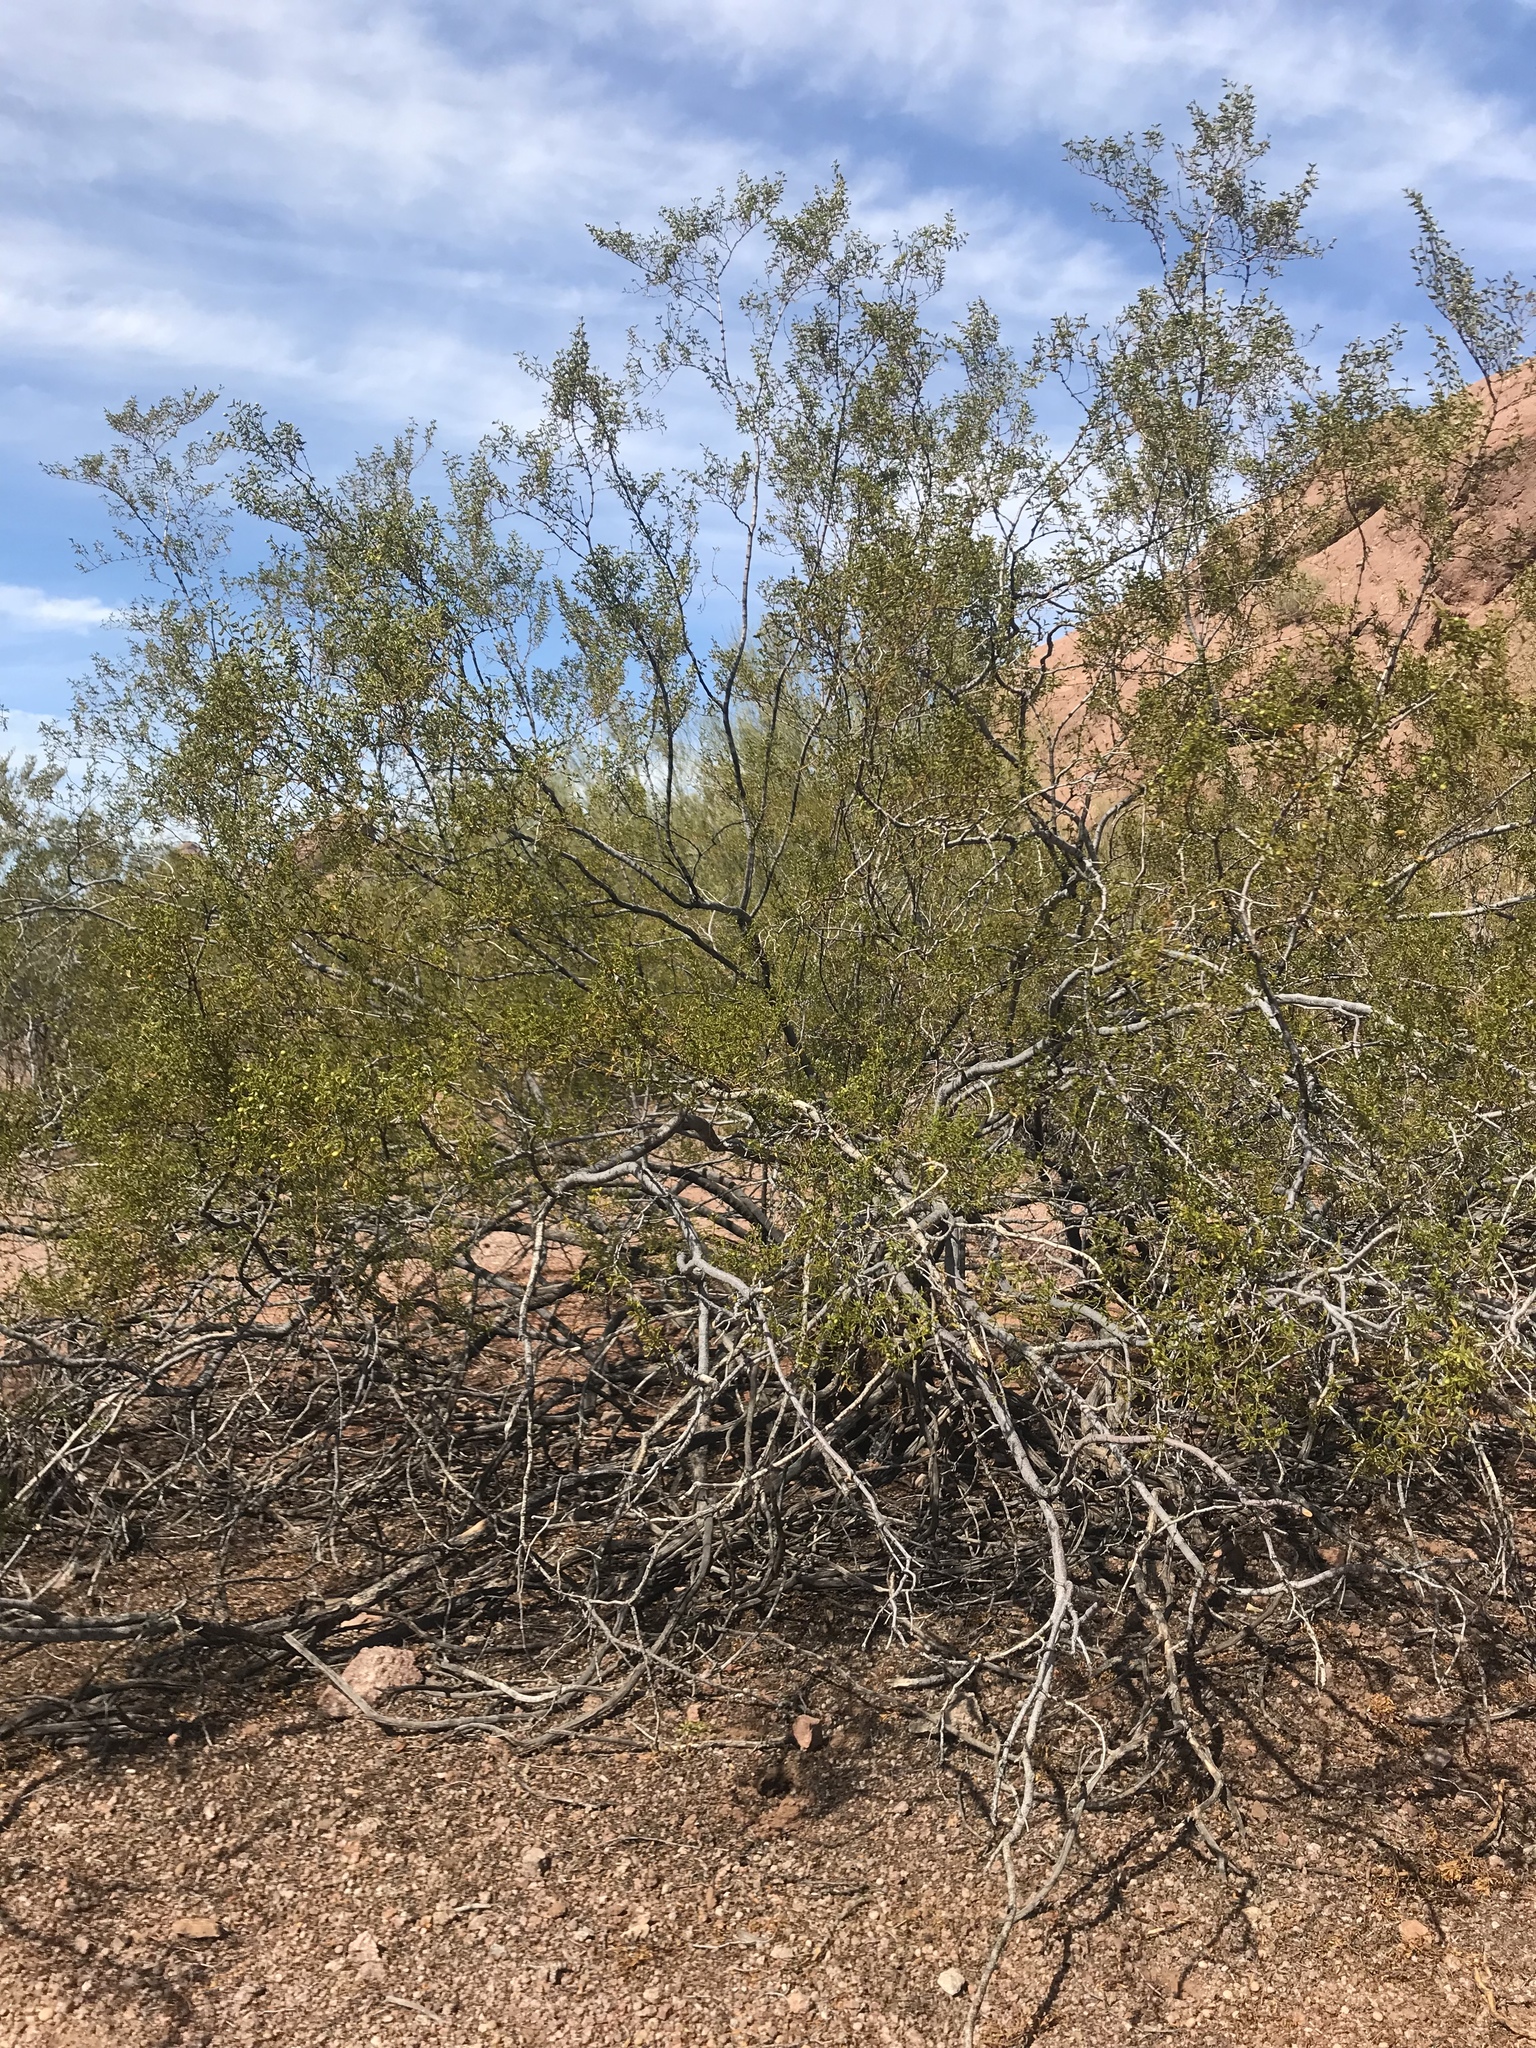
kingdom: Plantae
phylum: Tracheophyta
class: Magnoliopsida
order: Zygophyllales
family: Zygophyllaceae
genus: Larrea
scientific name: Larrea tridentata
